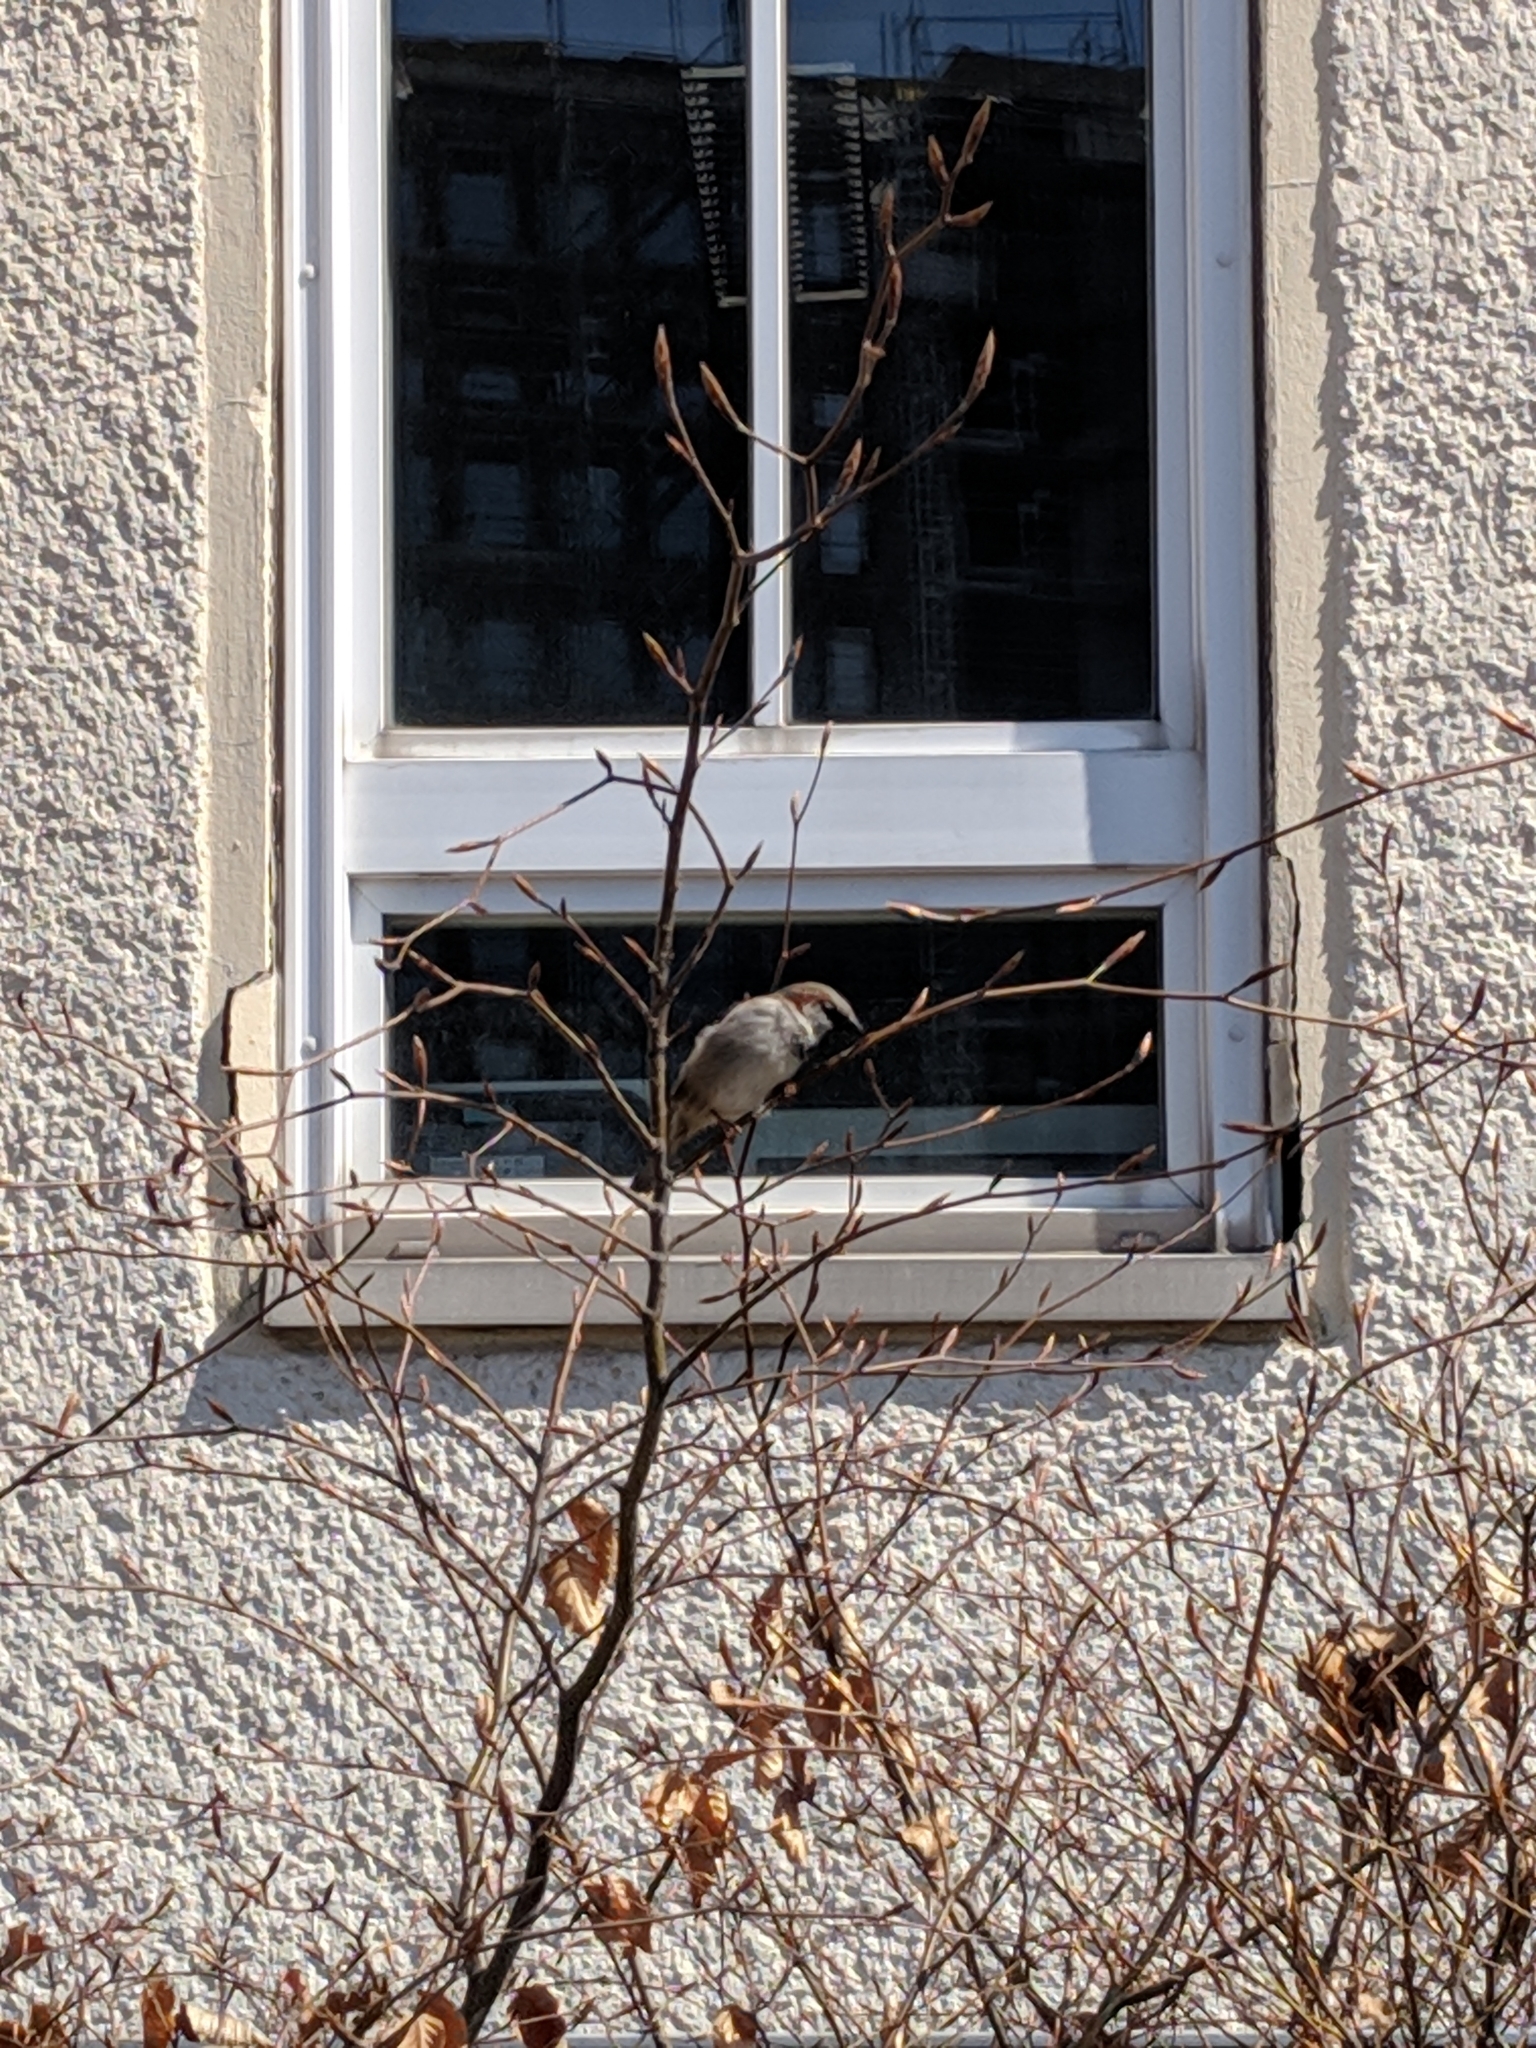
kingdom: Animalia
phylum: Chordata
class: Aves
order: Passeriformes
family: Passeridae
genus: Passer
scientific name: Passer domesticus
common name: House sparrow
